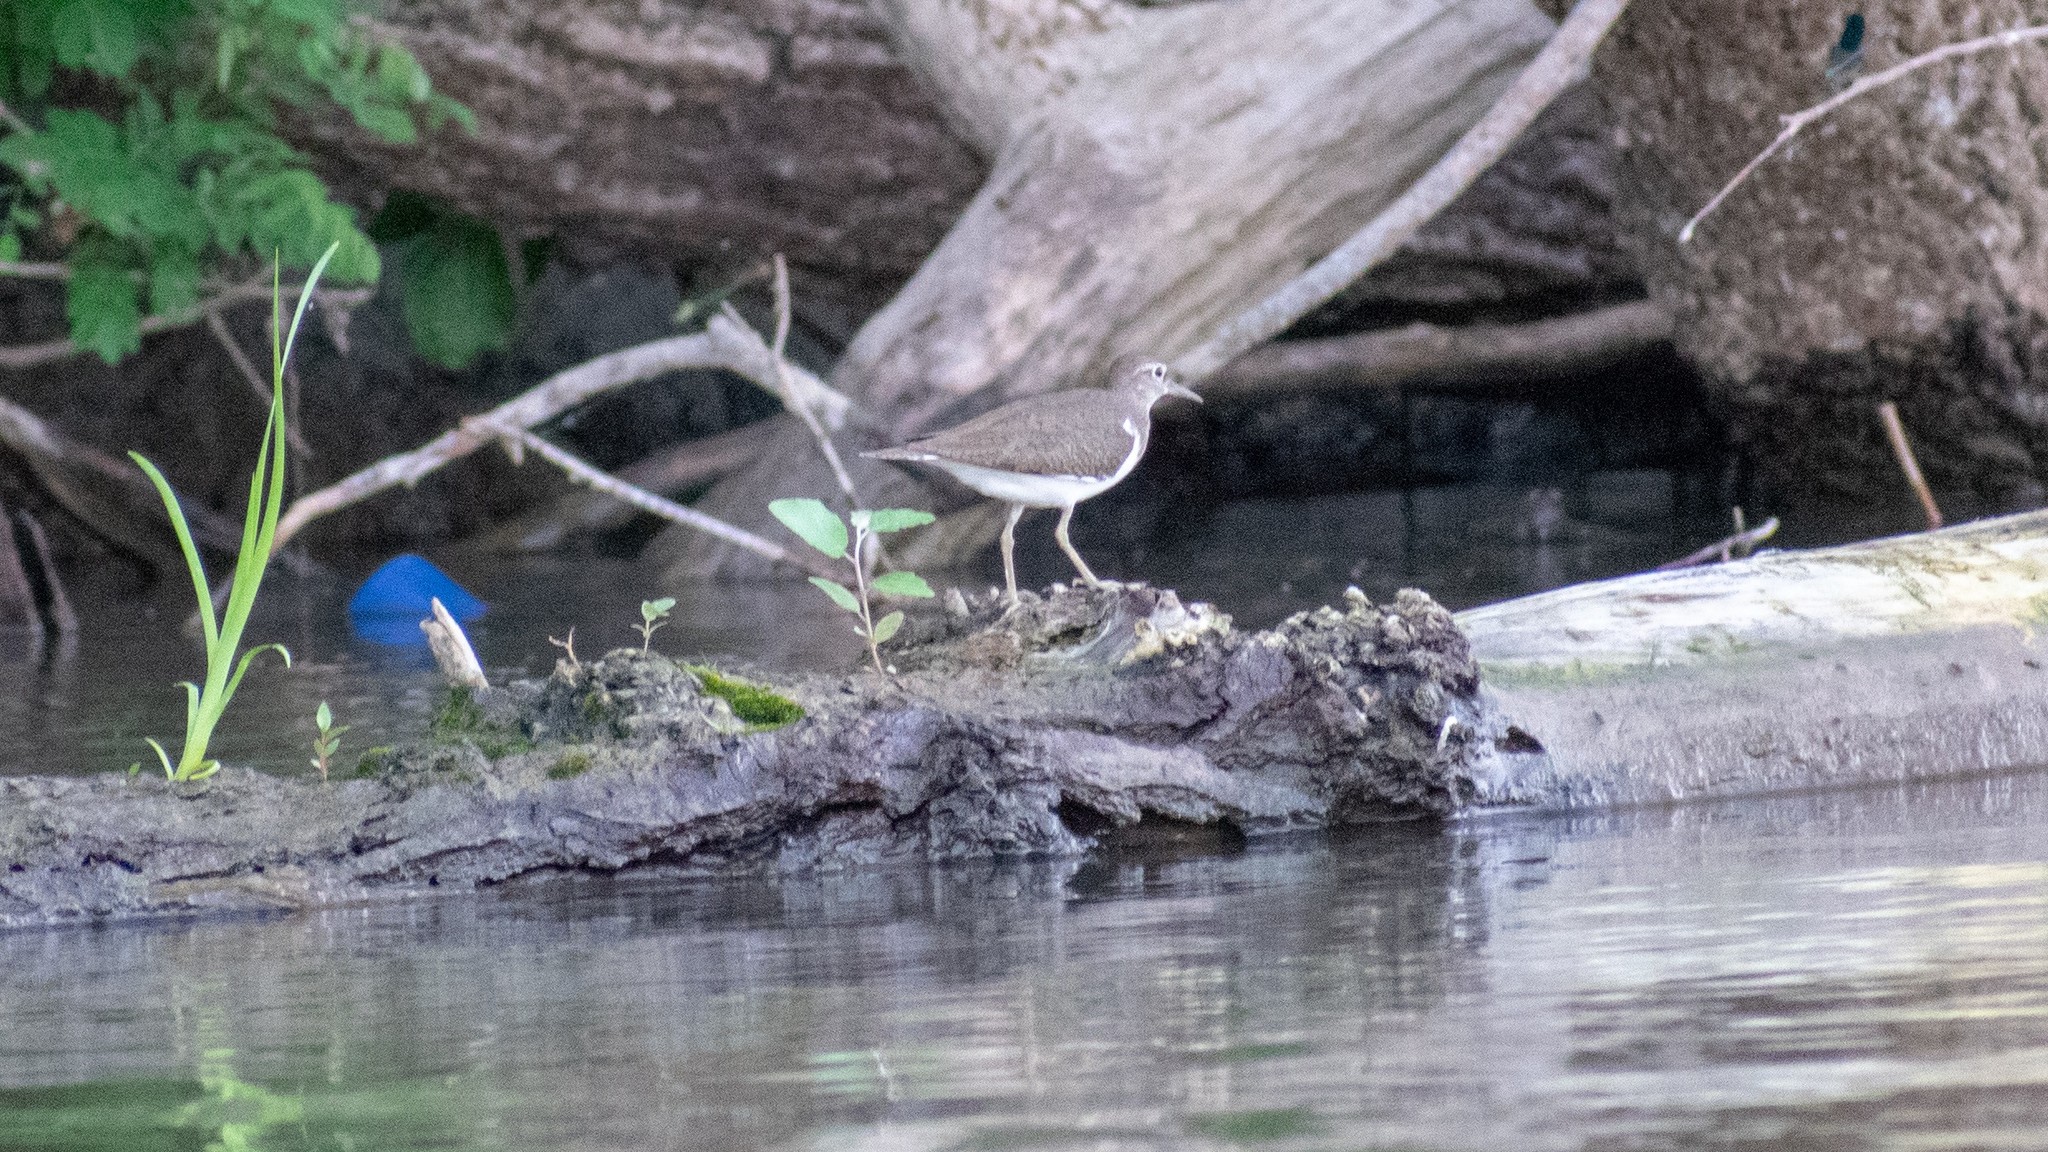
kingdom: Animalia
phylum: Chordata
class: Aves
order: Charadriiformes
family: Scolopacidae
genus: Actitis
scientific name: Actitis hypoleucos
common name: Common sandpiper
